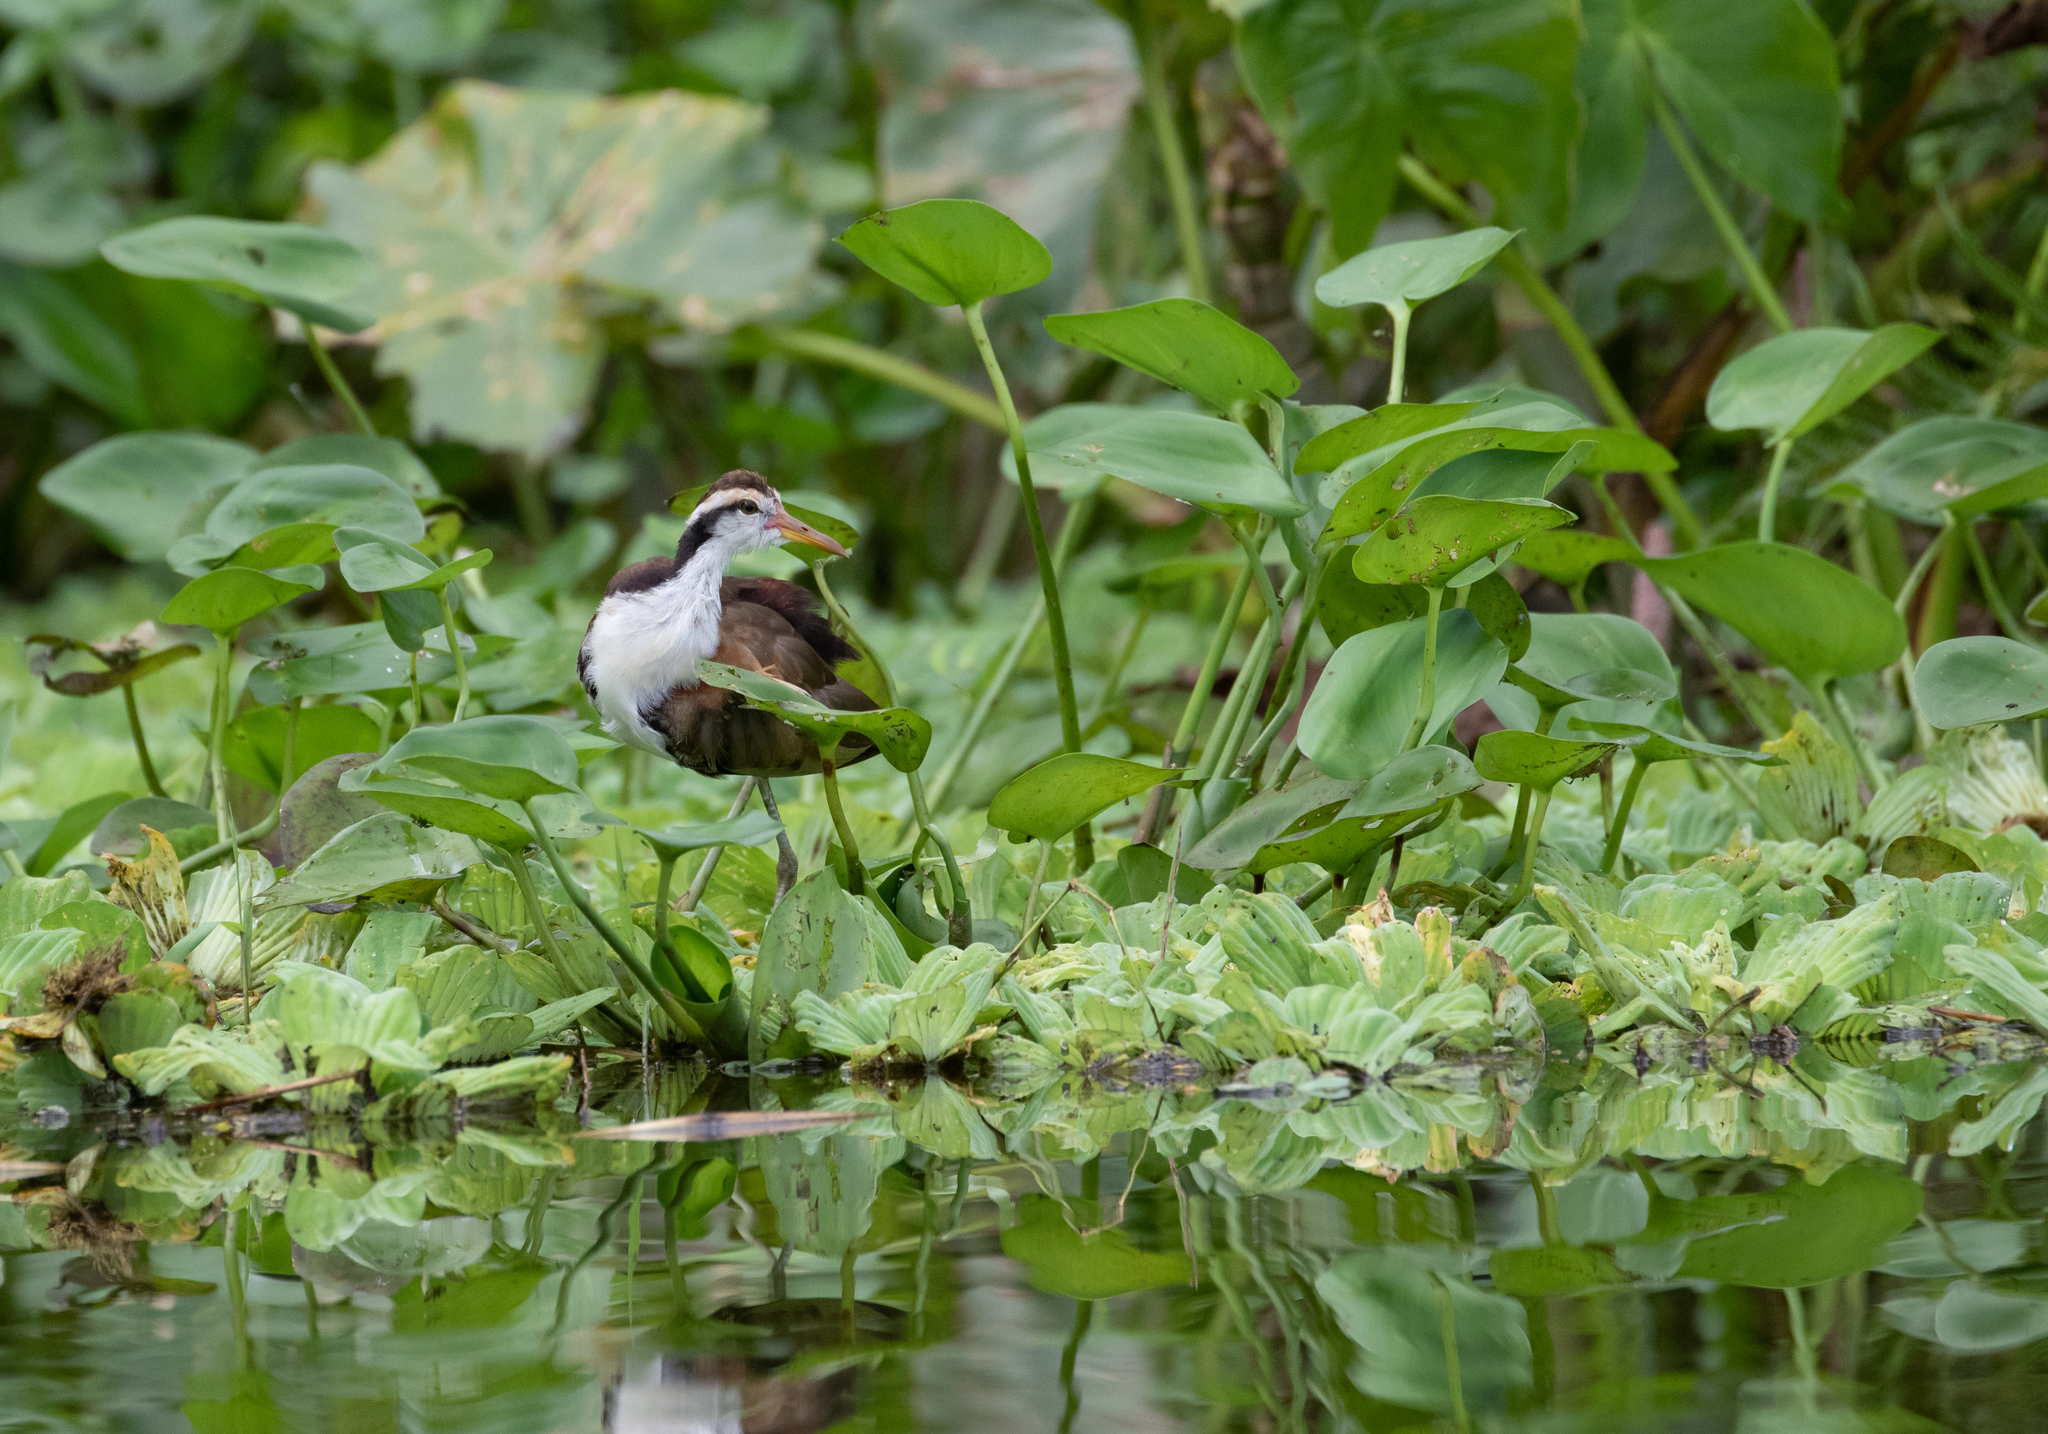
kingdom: Animalia
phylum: Chordata
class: Aves
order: Charadriiformes
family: Jacanidae
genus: Jacana
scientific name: Jacana jacana
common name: Wattled jacana
